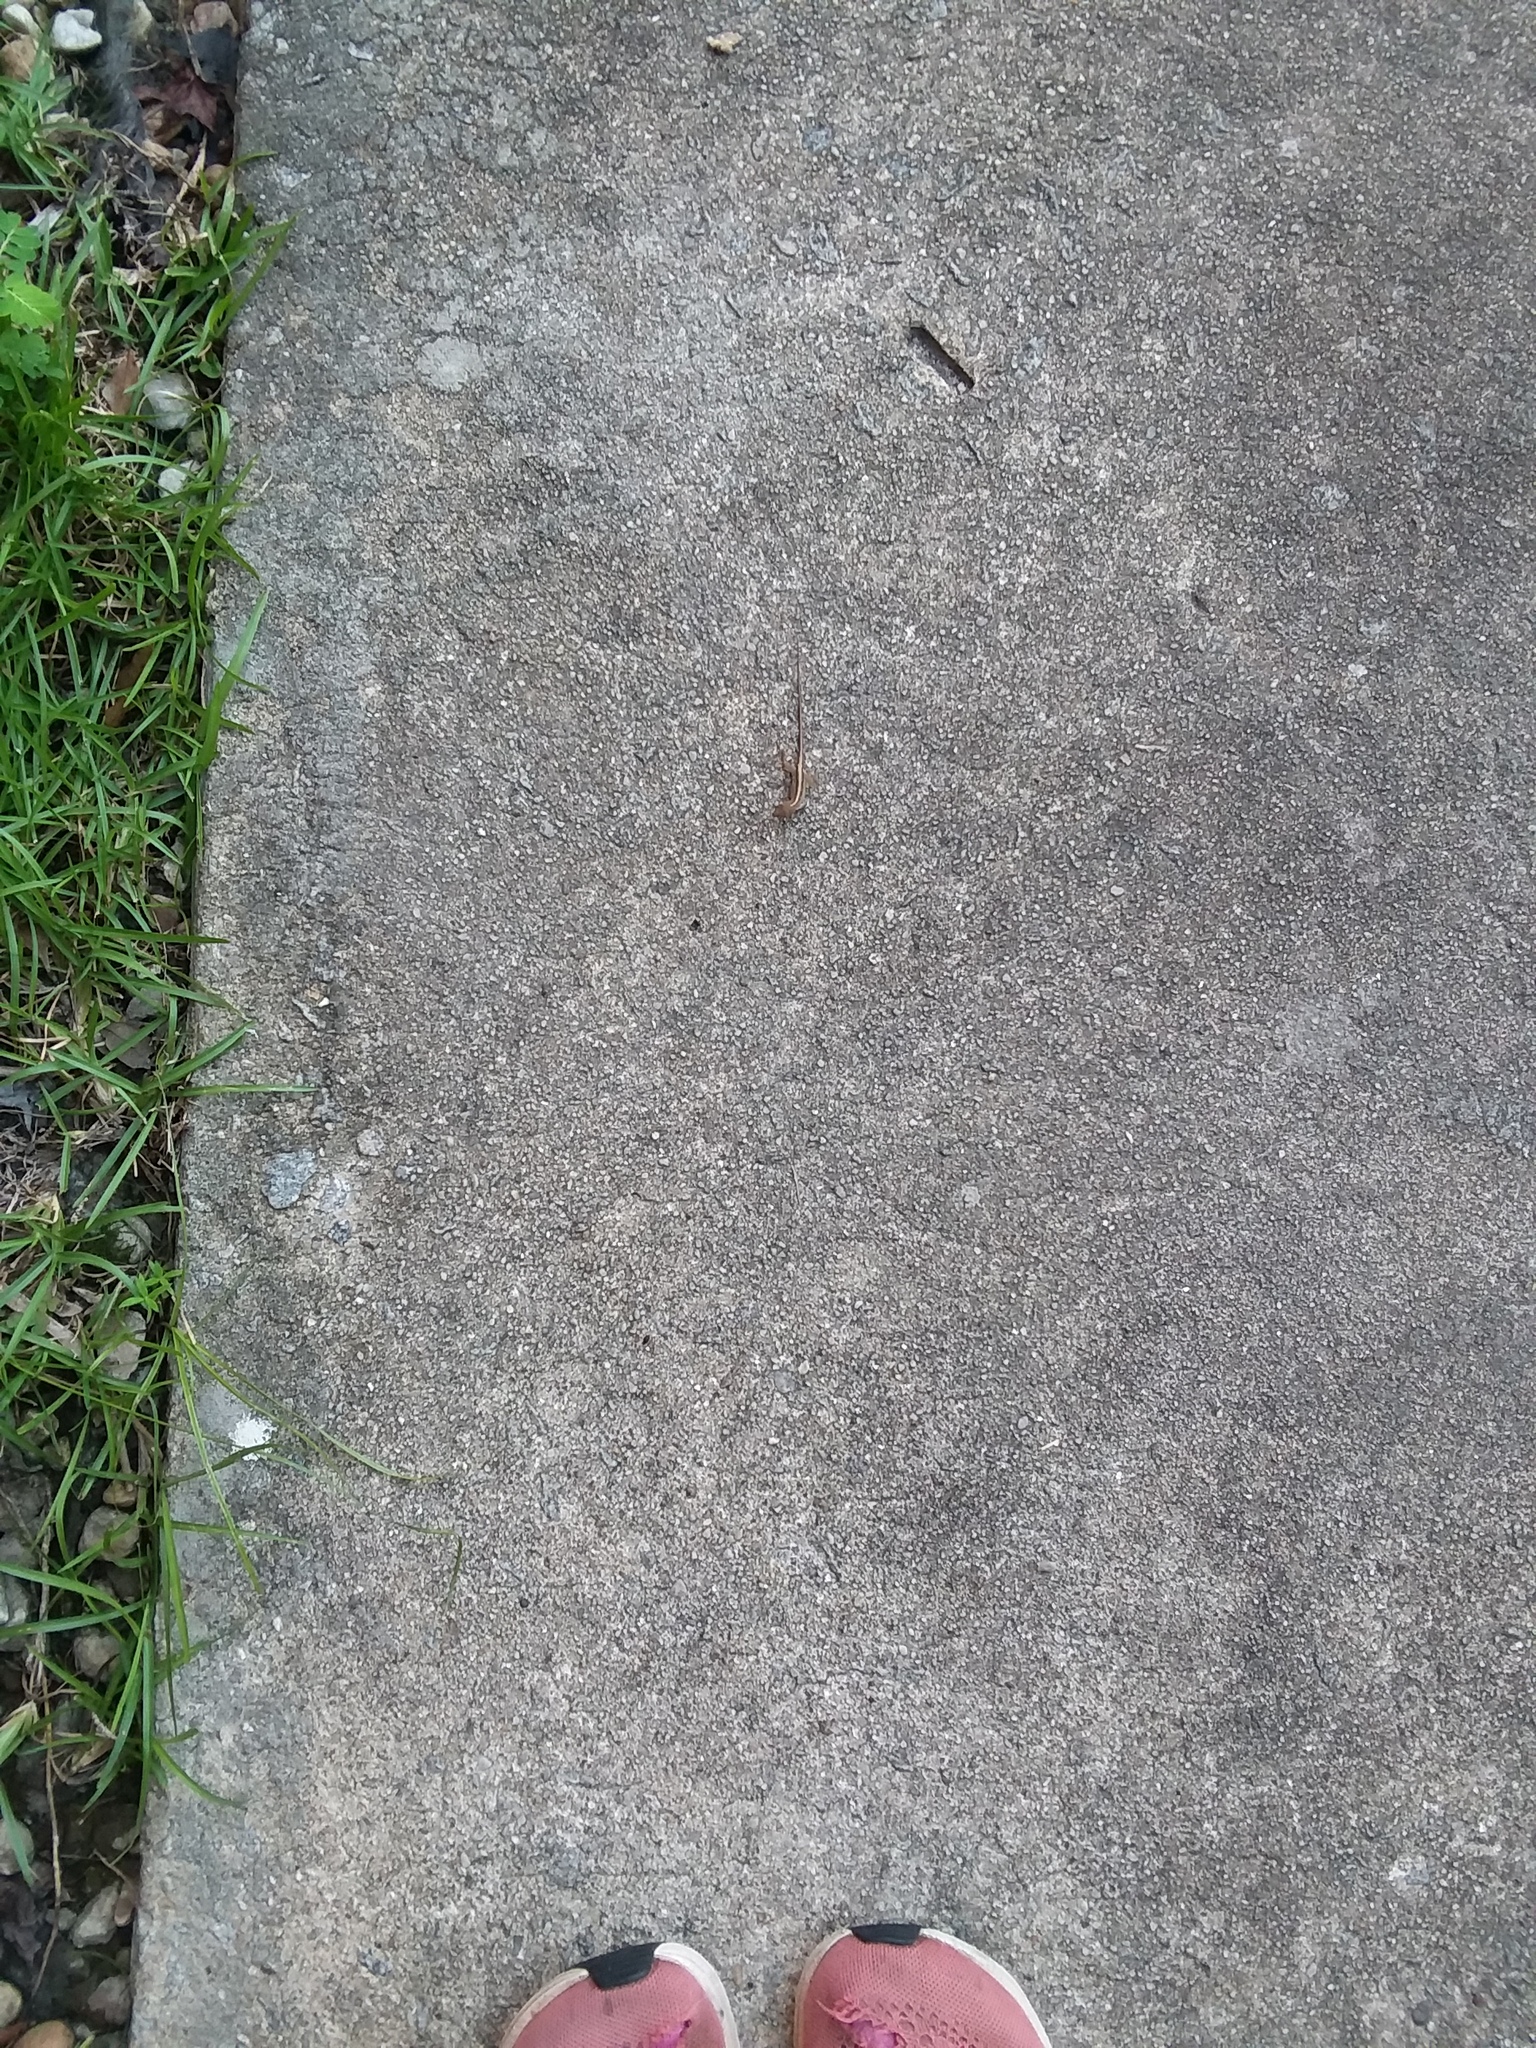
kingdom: Animalia
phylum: Chordata
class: Squamata
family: Dactyloidae
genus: Anolis
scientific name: Anolis sagrei
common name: Brown anole
